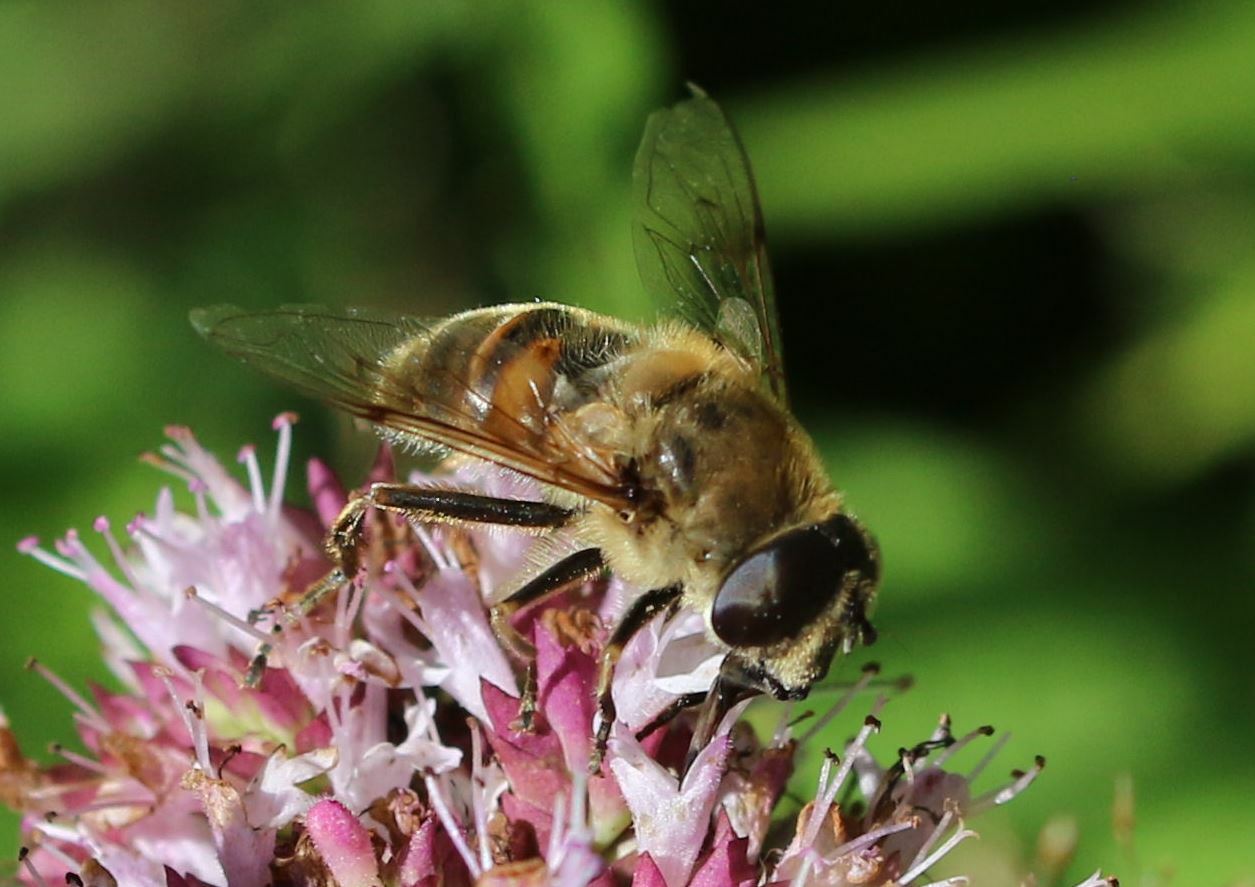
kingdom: Animalia
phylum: Arthropoda
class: Insecta
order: Diptera
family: Syrphidae
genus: Eristalis
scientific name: Eristalis tenax
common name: Drone fly
